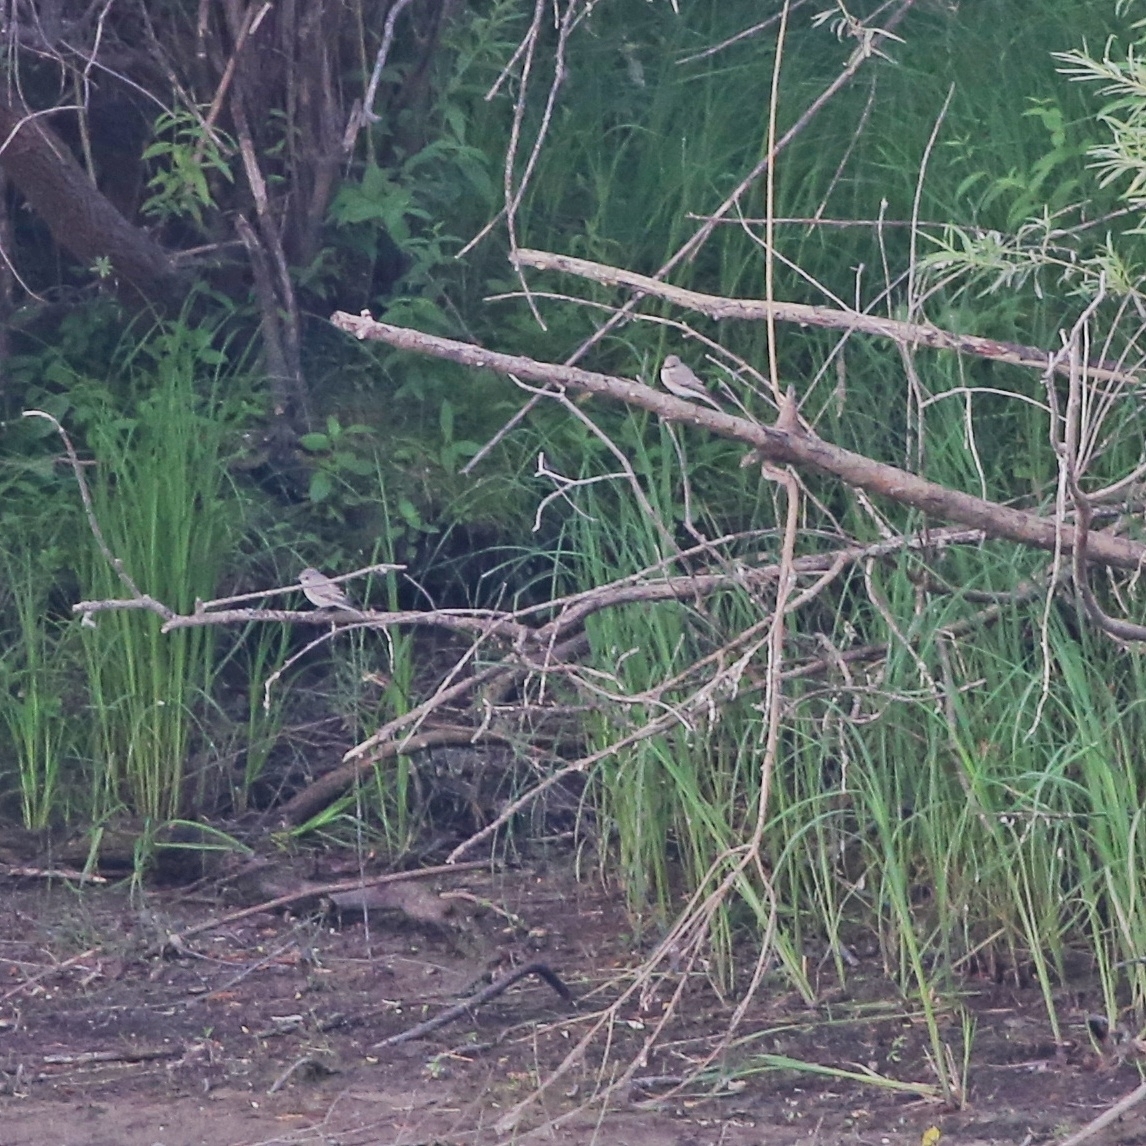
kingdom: Animalia
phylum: Chordata
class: Aves
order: Passeriformes
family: Muscicapidae
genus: Muscicapa
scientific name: Muscicapa striata
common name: Spotted flycatcher
